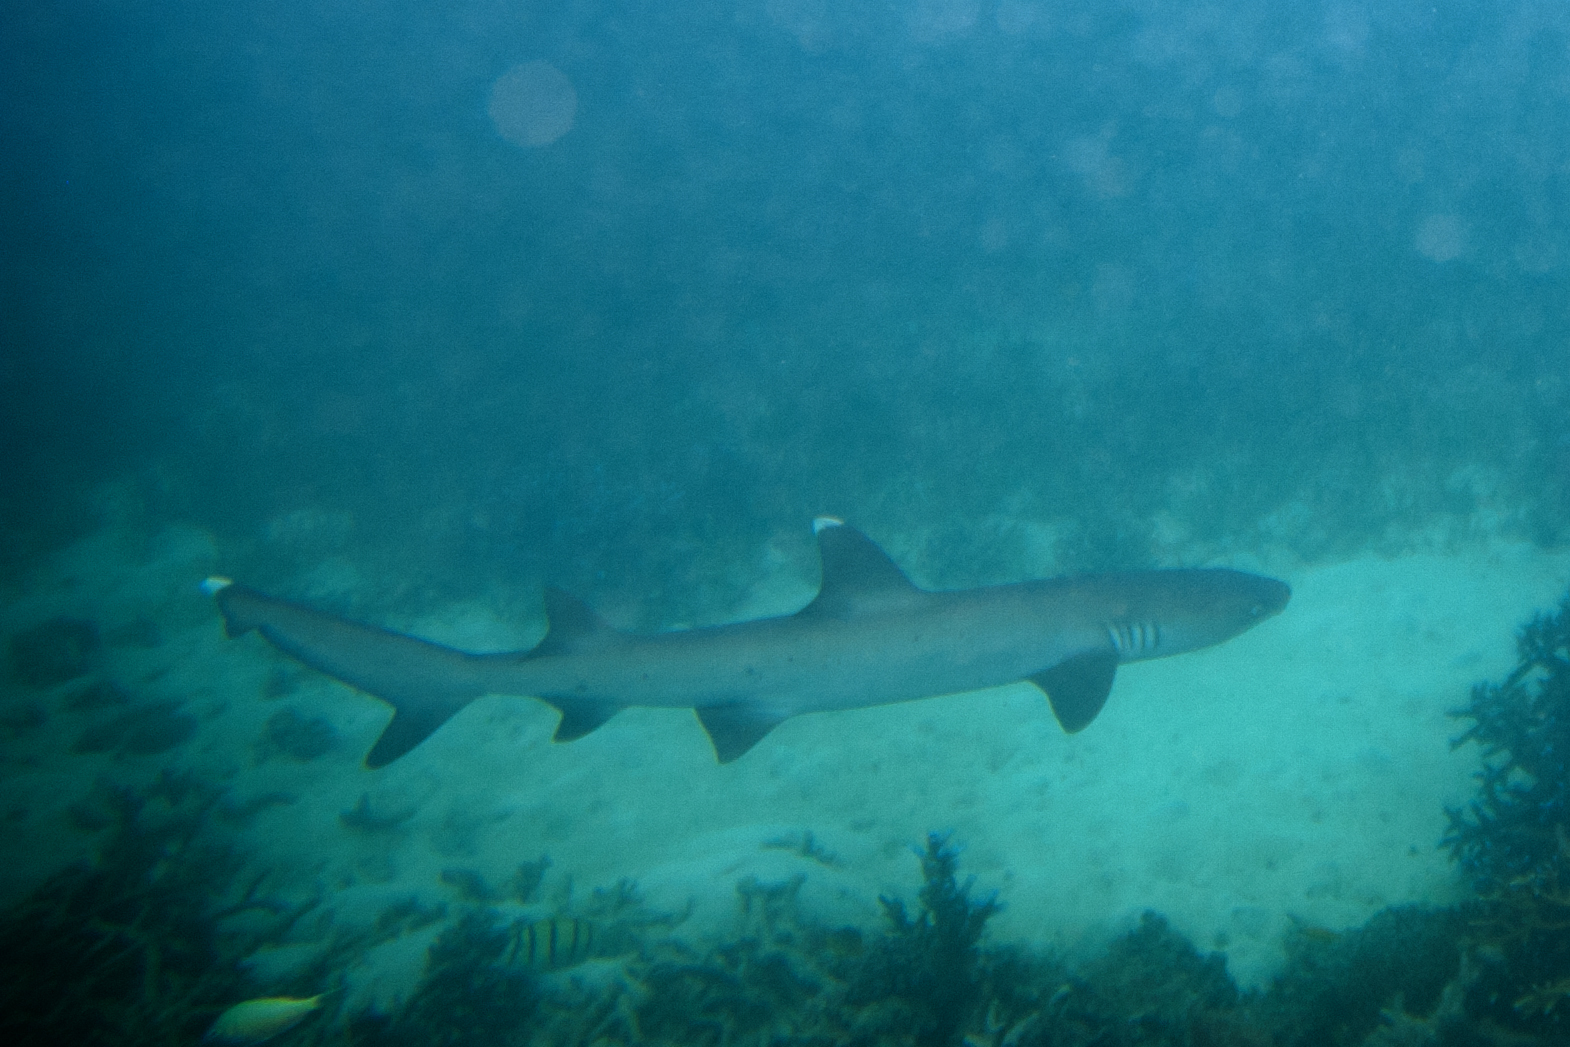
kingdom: Animalia
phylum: Chordata
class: Elasmobranchii
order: Carcharhiniformes
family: Carcharhinidae
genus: Triaenodon
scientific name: Triaenodon obesus
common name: Whitetip reef shark
